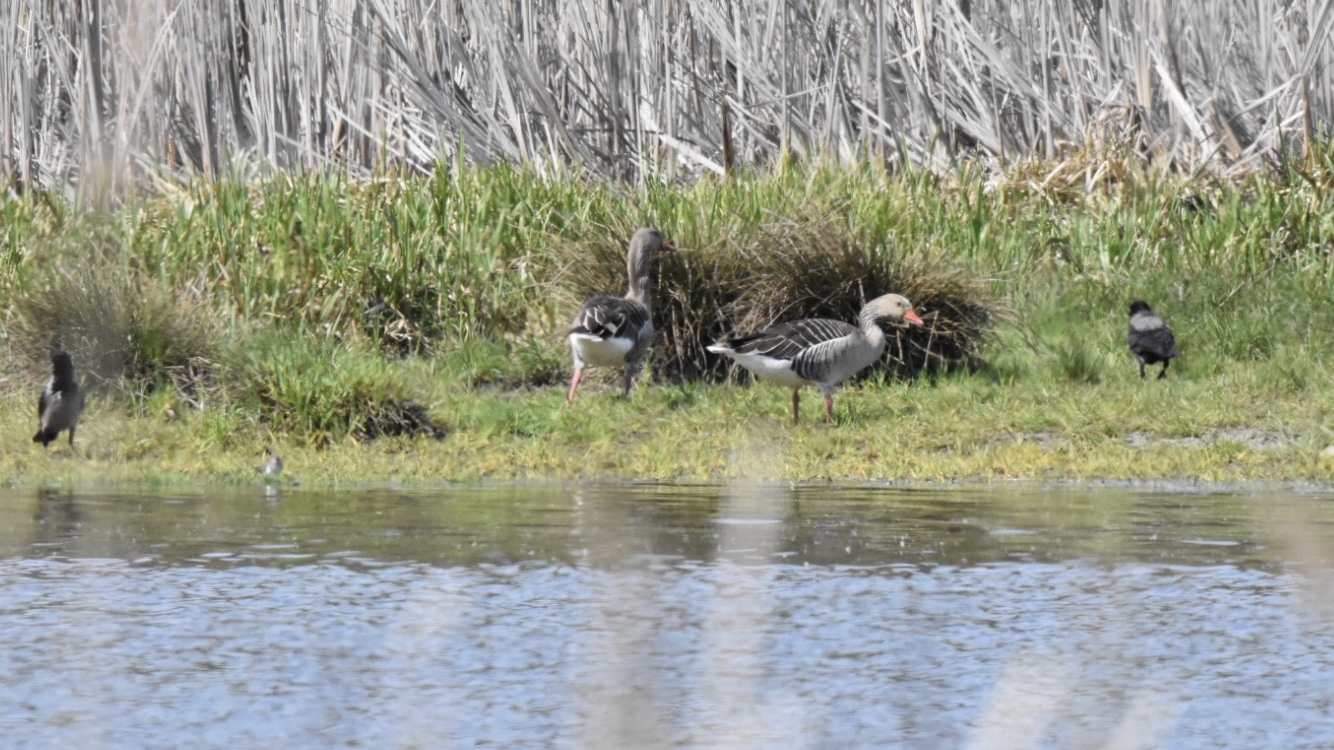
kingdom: Animalia
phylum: Chordata
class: Aves
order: Anseriformes
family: Anatidae
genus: Anser
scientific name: Anser anser
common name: Greylag goose
